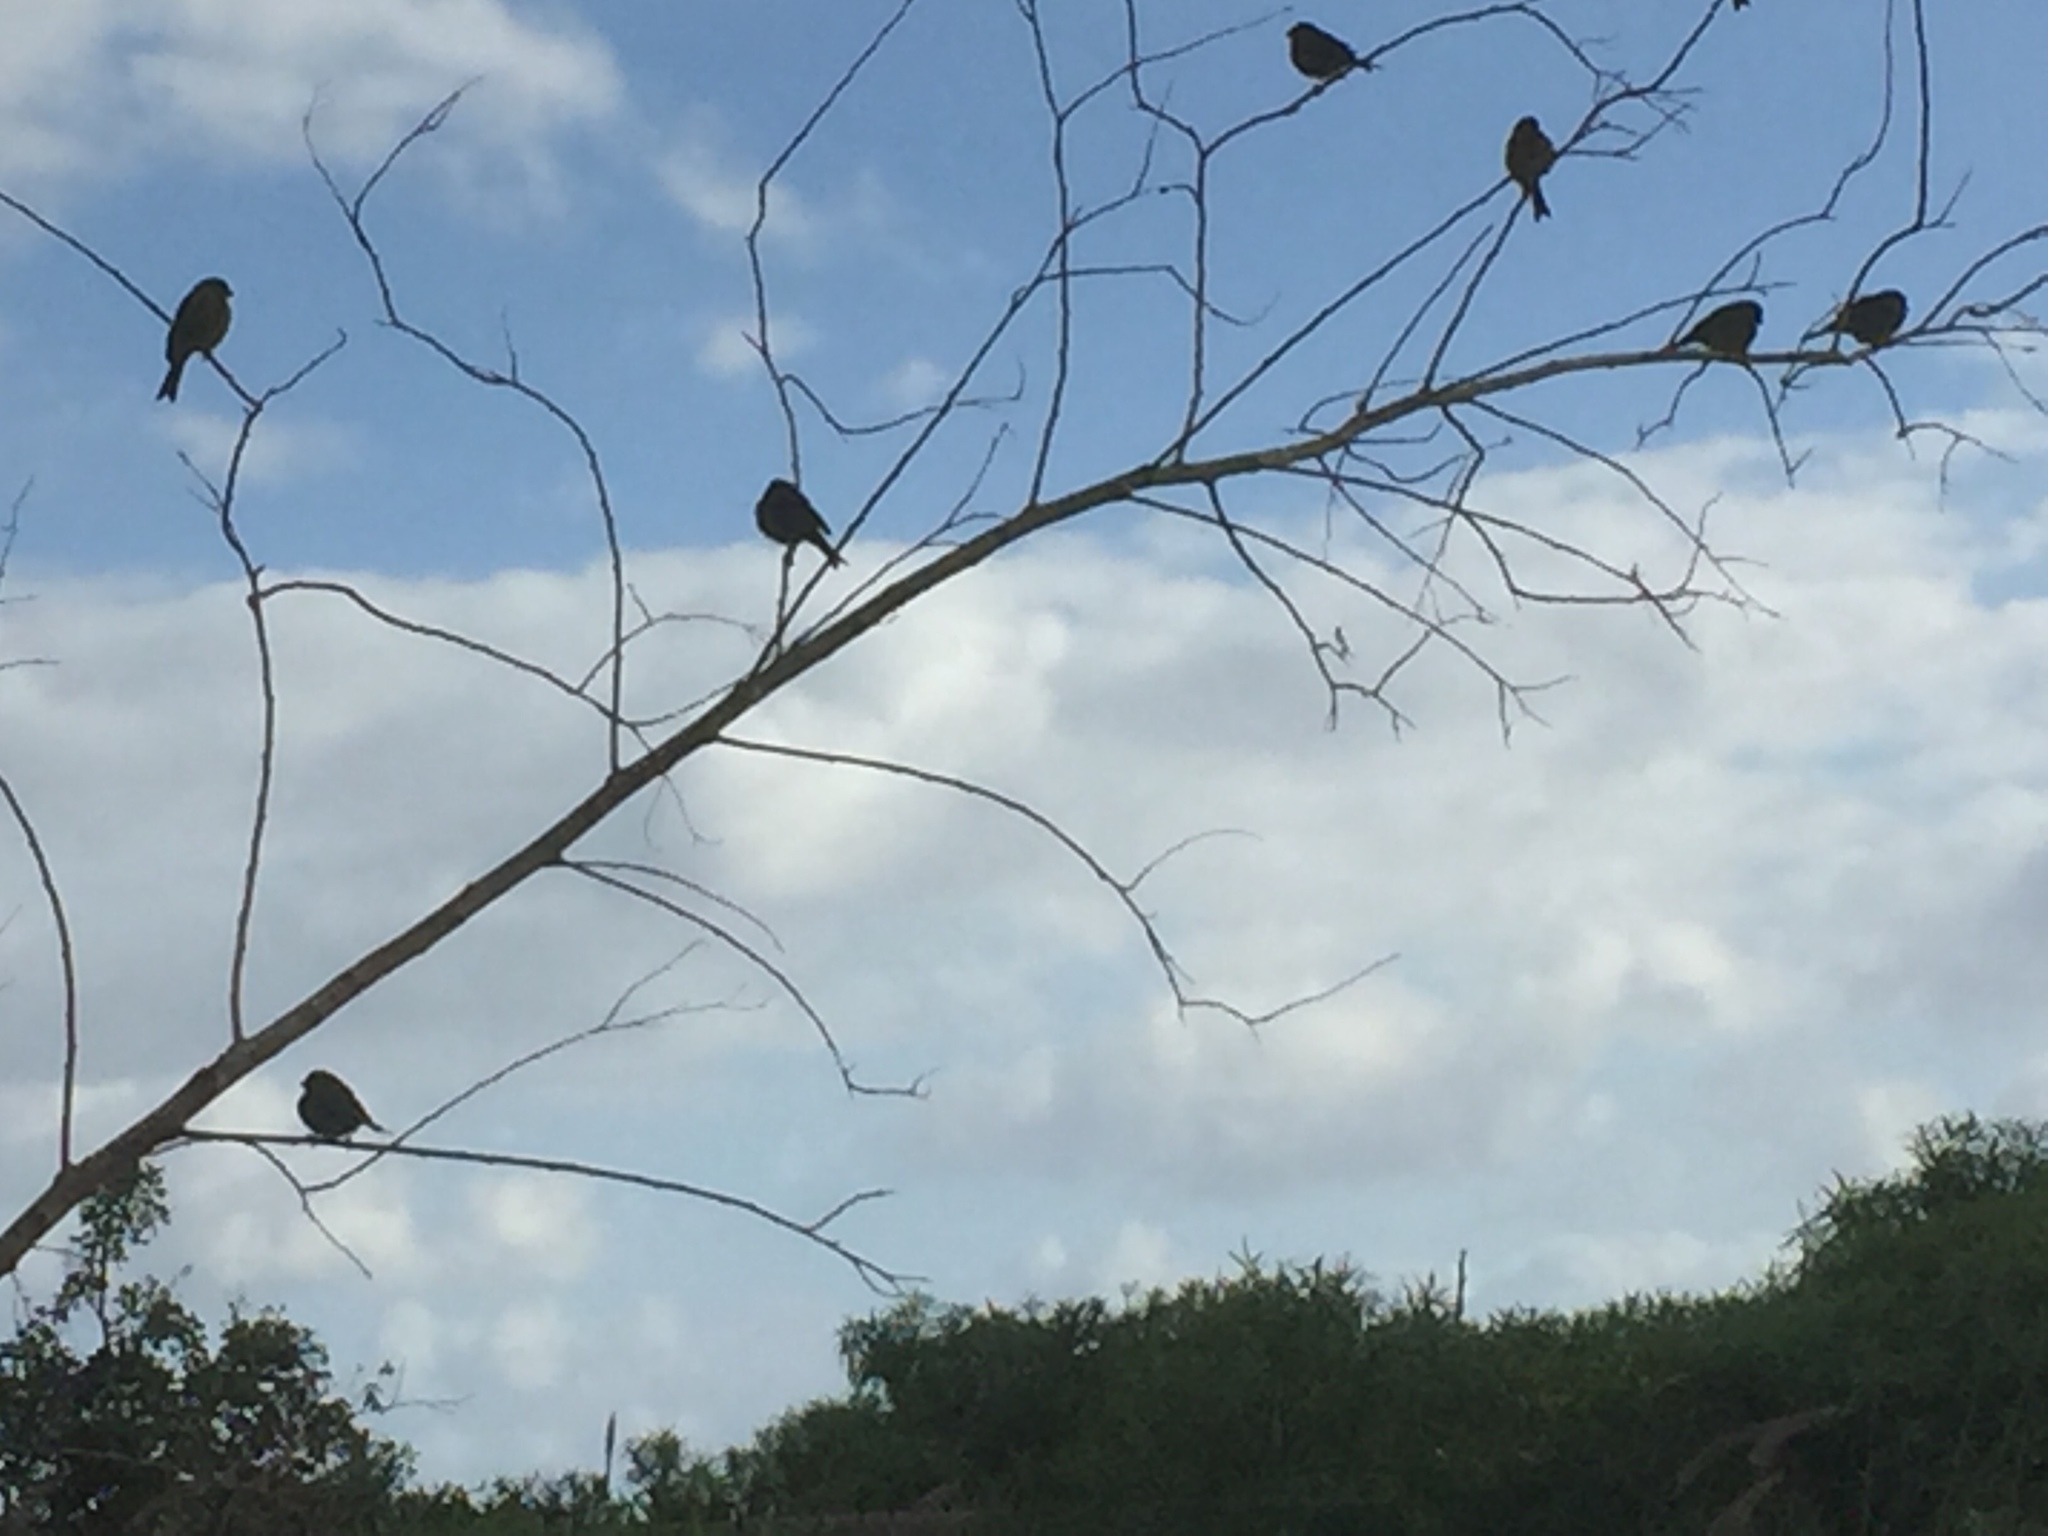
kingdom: Animalia
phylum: Chordata
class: Aves
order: Passeriformes
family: Fringillidae
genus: Serinus
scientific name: Serinus canaria
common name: Atlantic canary
